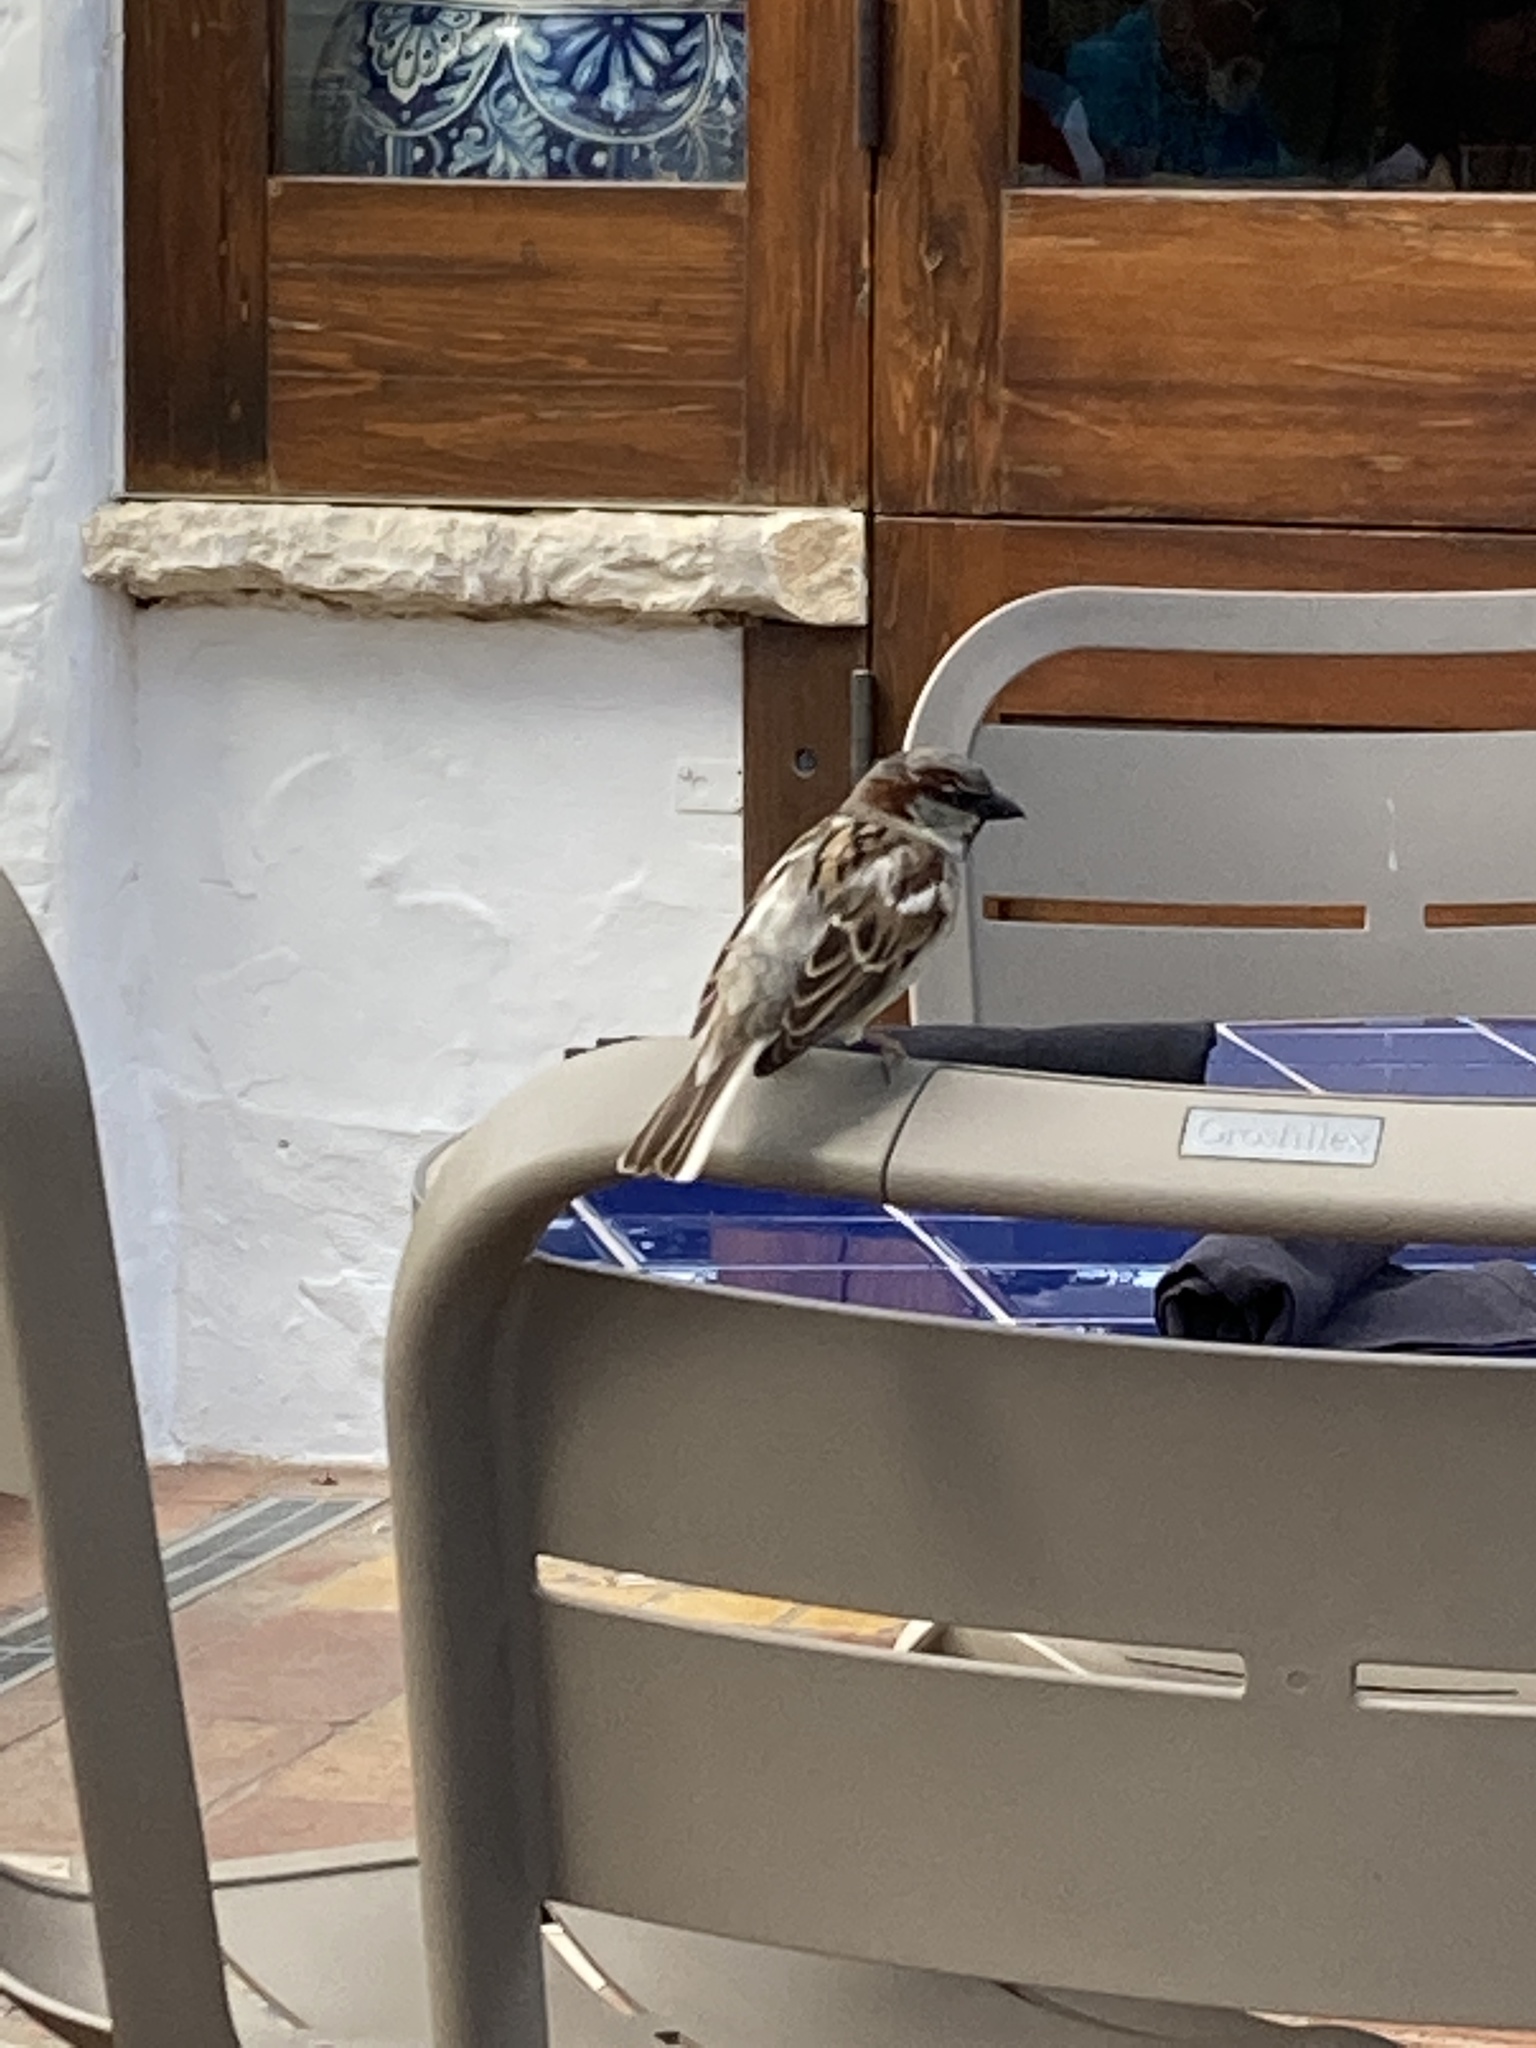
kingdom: Animalia
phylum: Chordata
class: Aves
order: Passeriformes
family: Passeridae
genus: Passer
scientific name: Passer domesticus
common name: House sparrow
